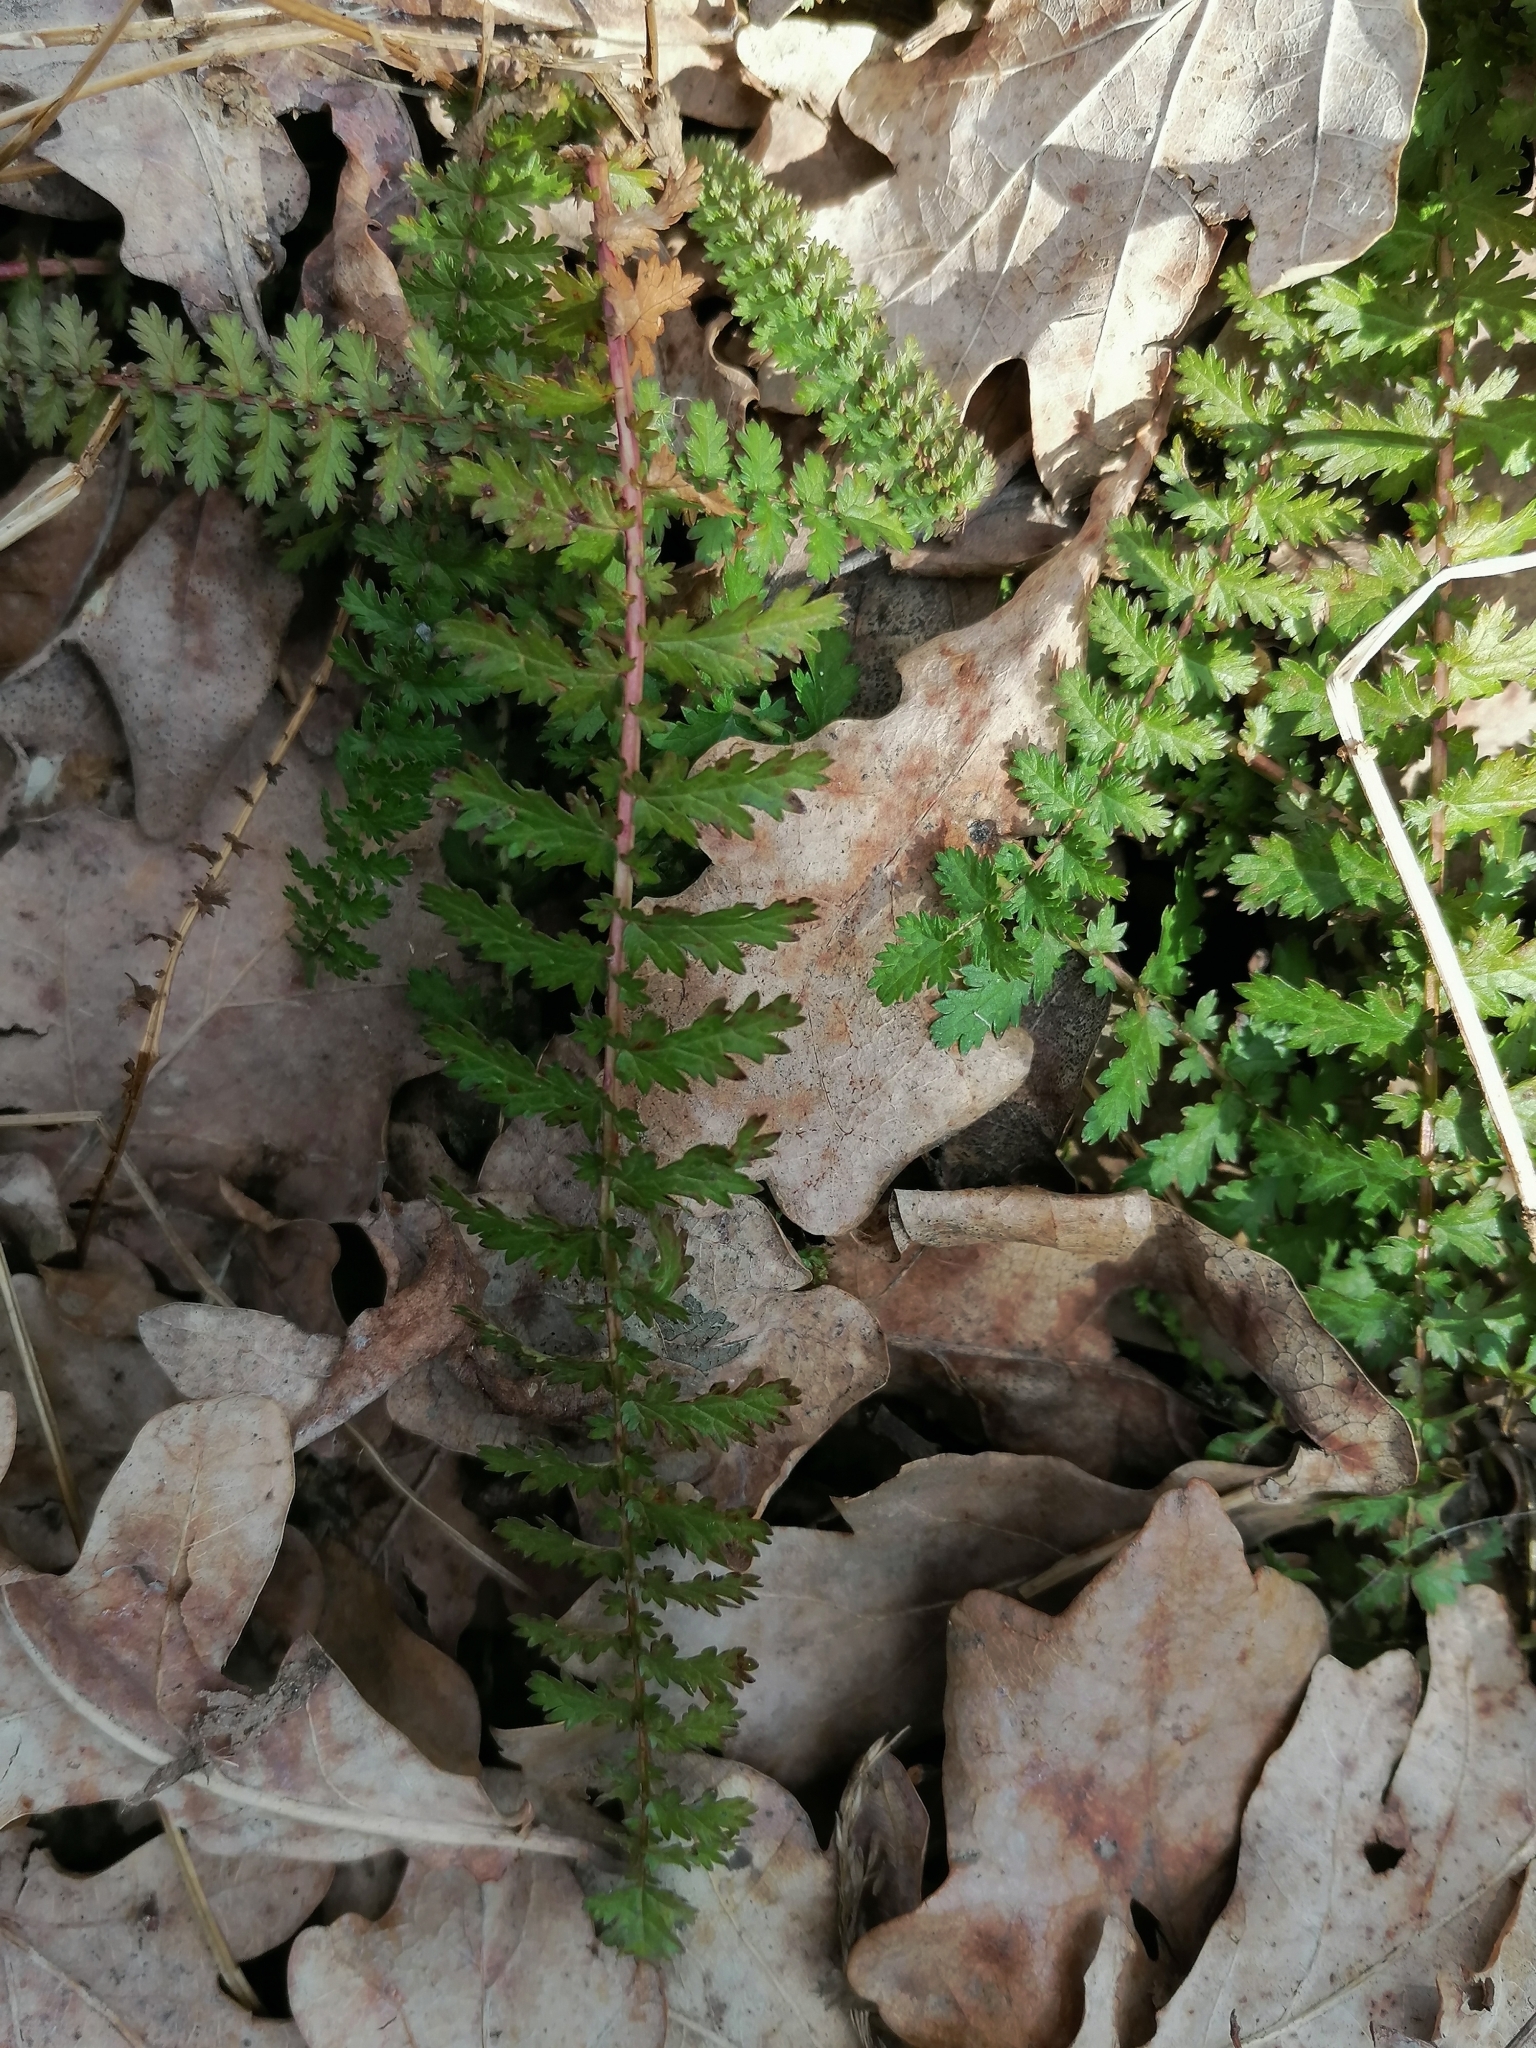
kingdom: Plantae
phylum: Tracheophyta
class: Magnoliopsida
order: Rosales
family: Rosaceae
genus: Filipendula
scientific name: Filipendula vulgaris
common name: Dropwort
